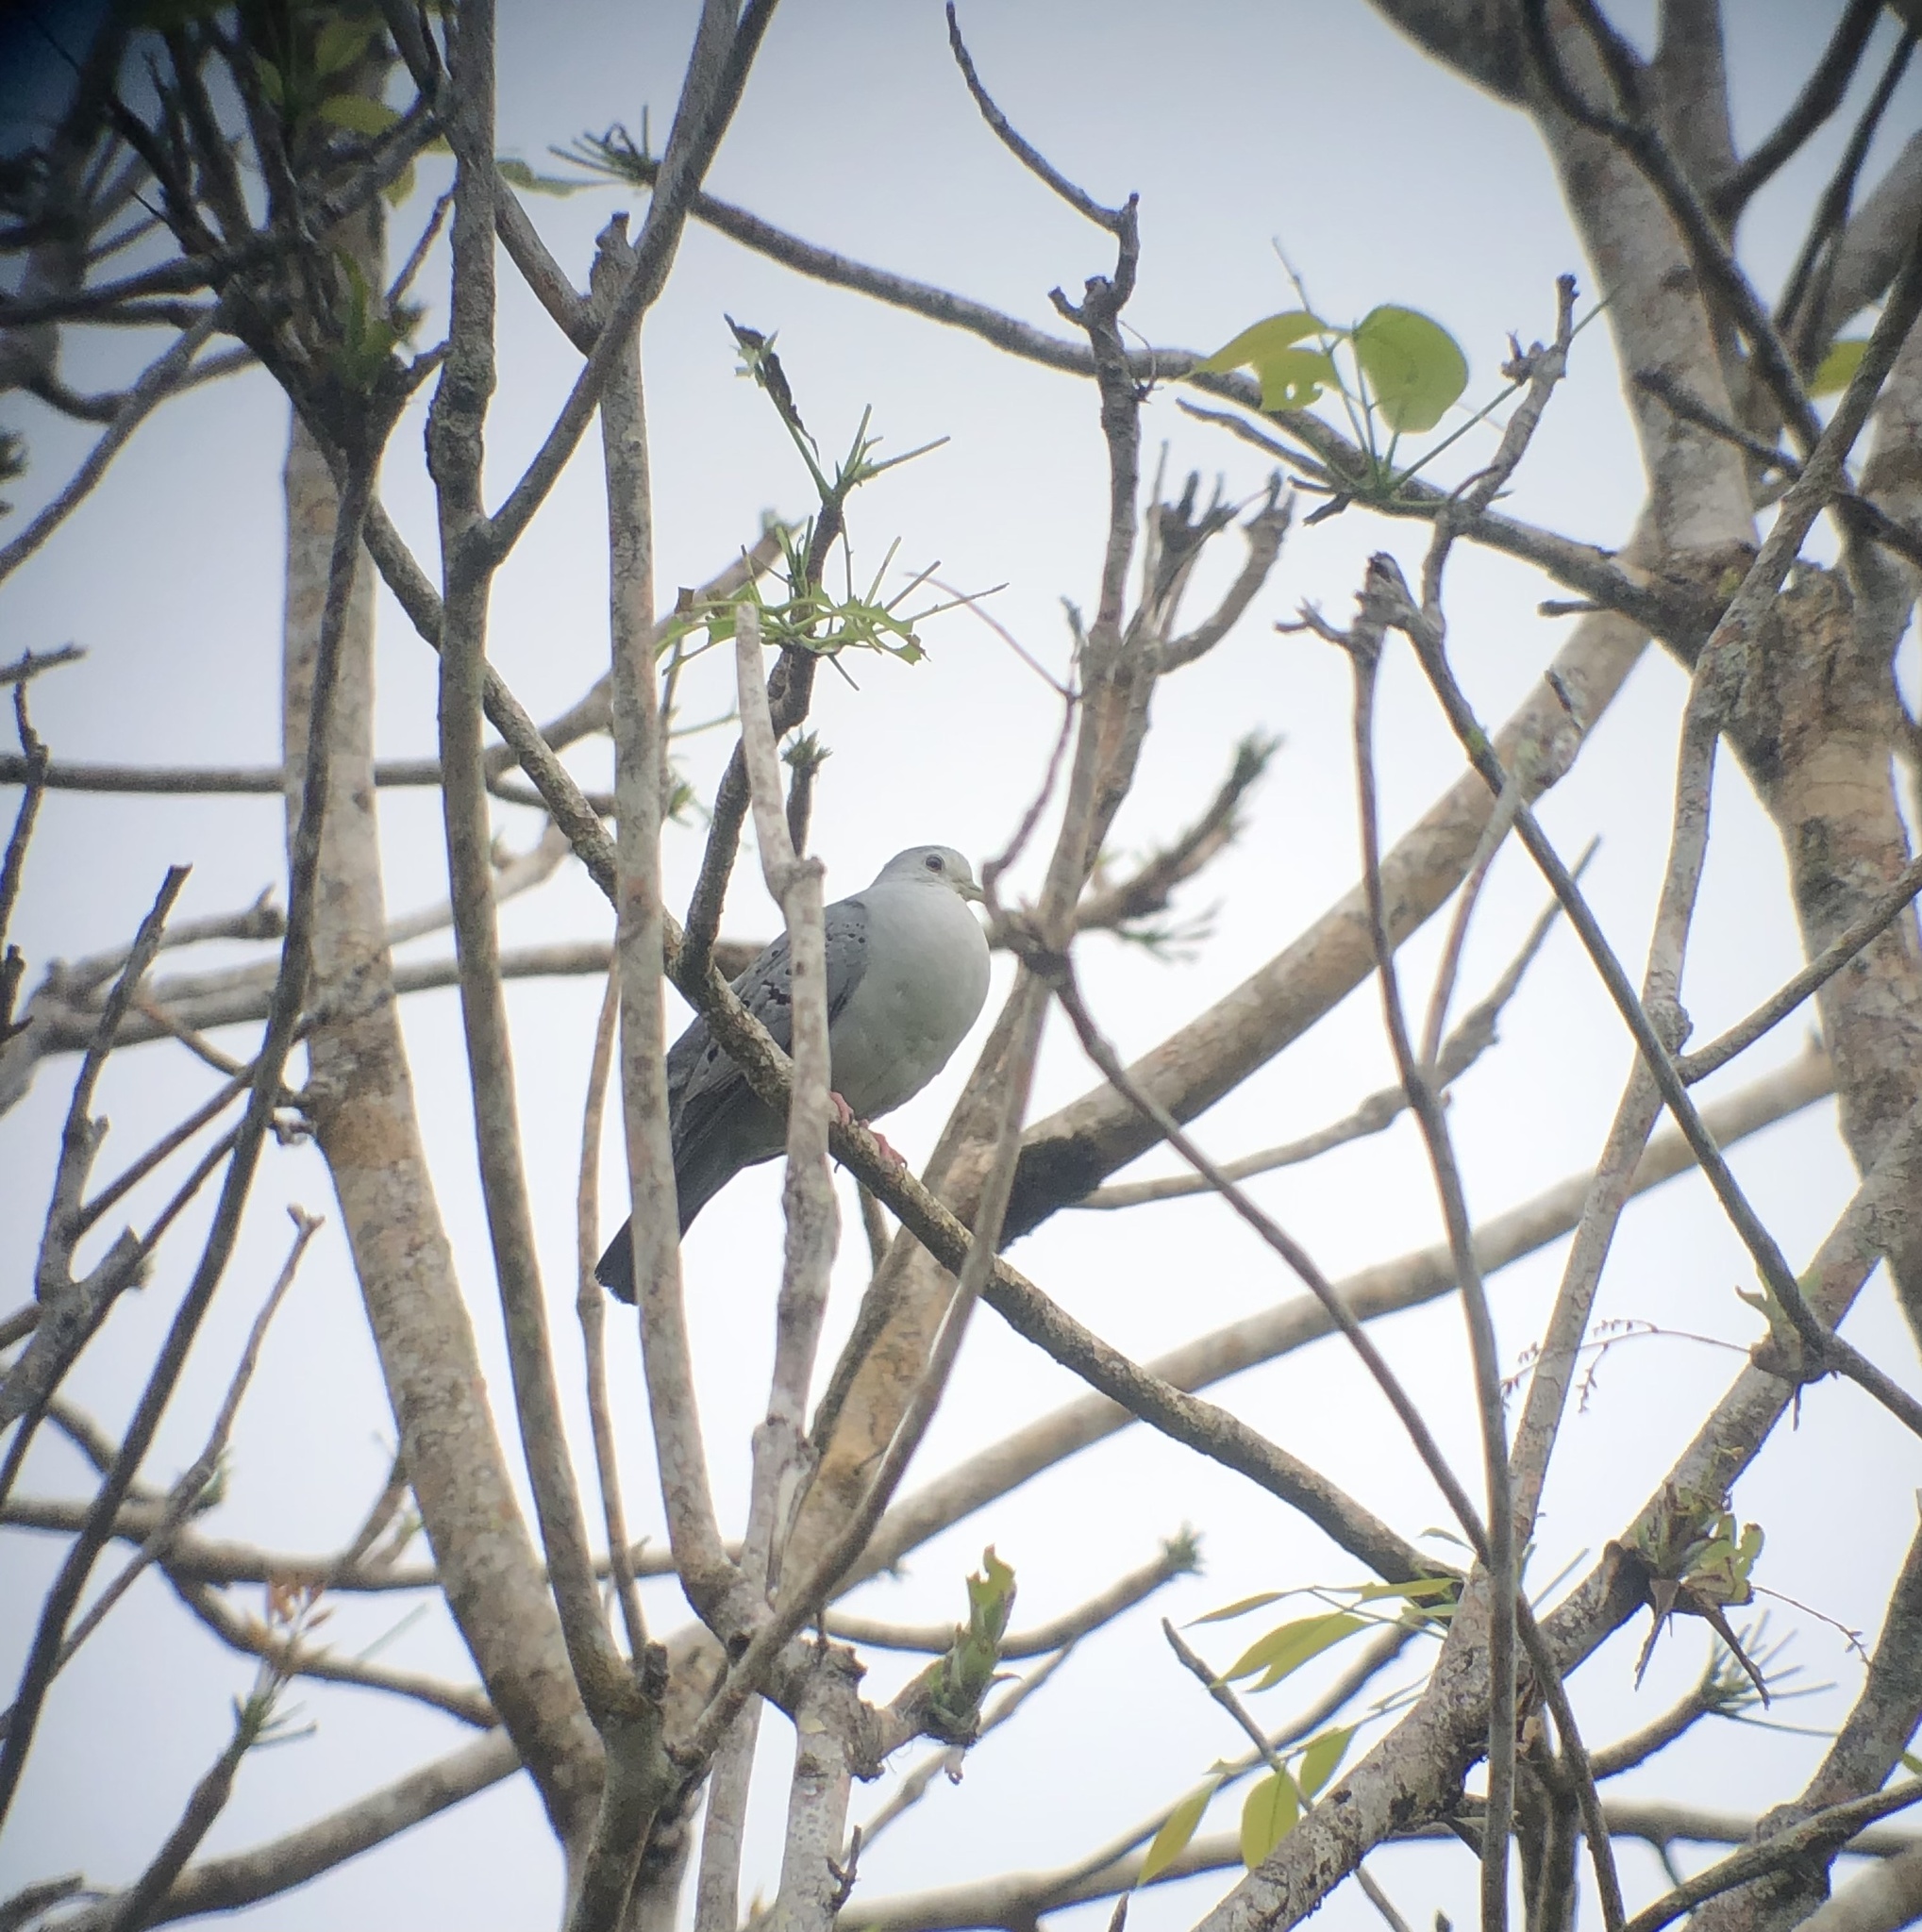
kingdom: Animalia
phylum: Chordata
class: Aves
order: Columbiformes
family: Columbidae
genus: Claravis
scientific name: Claravis pretiosa
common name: Blue ground-dove
